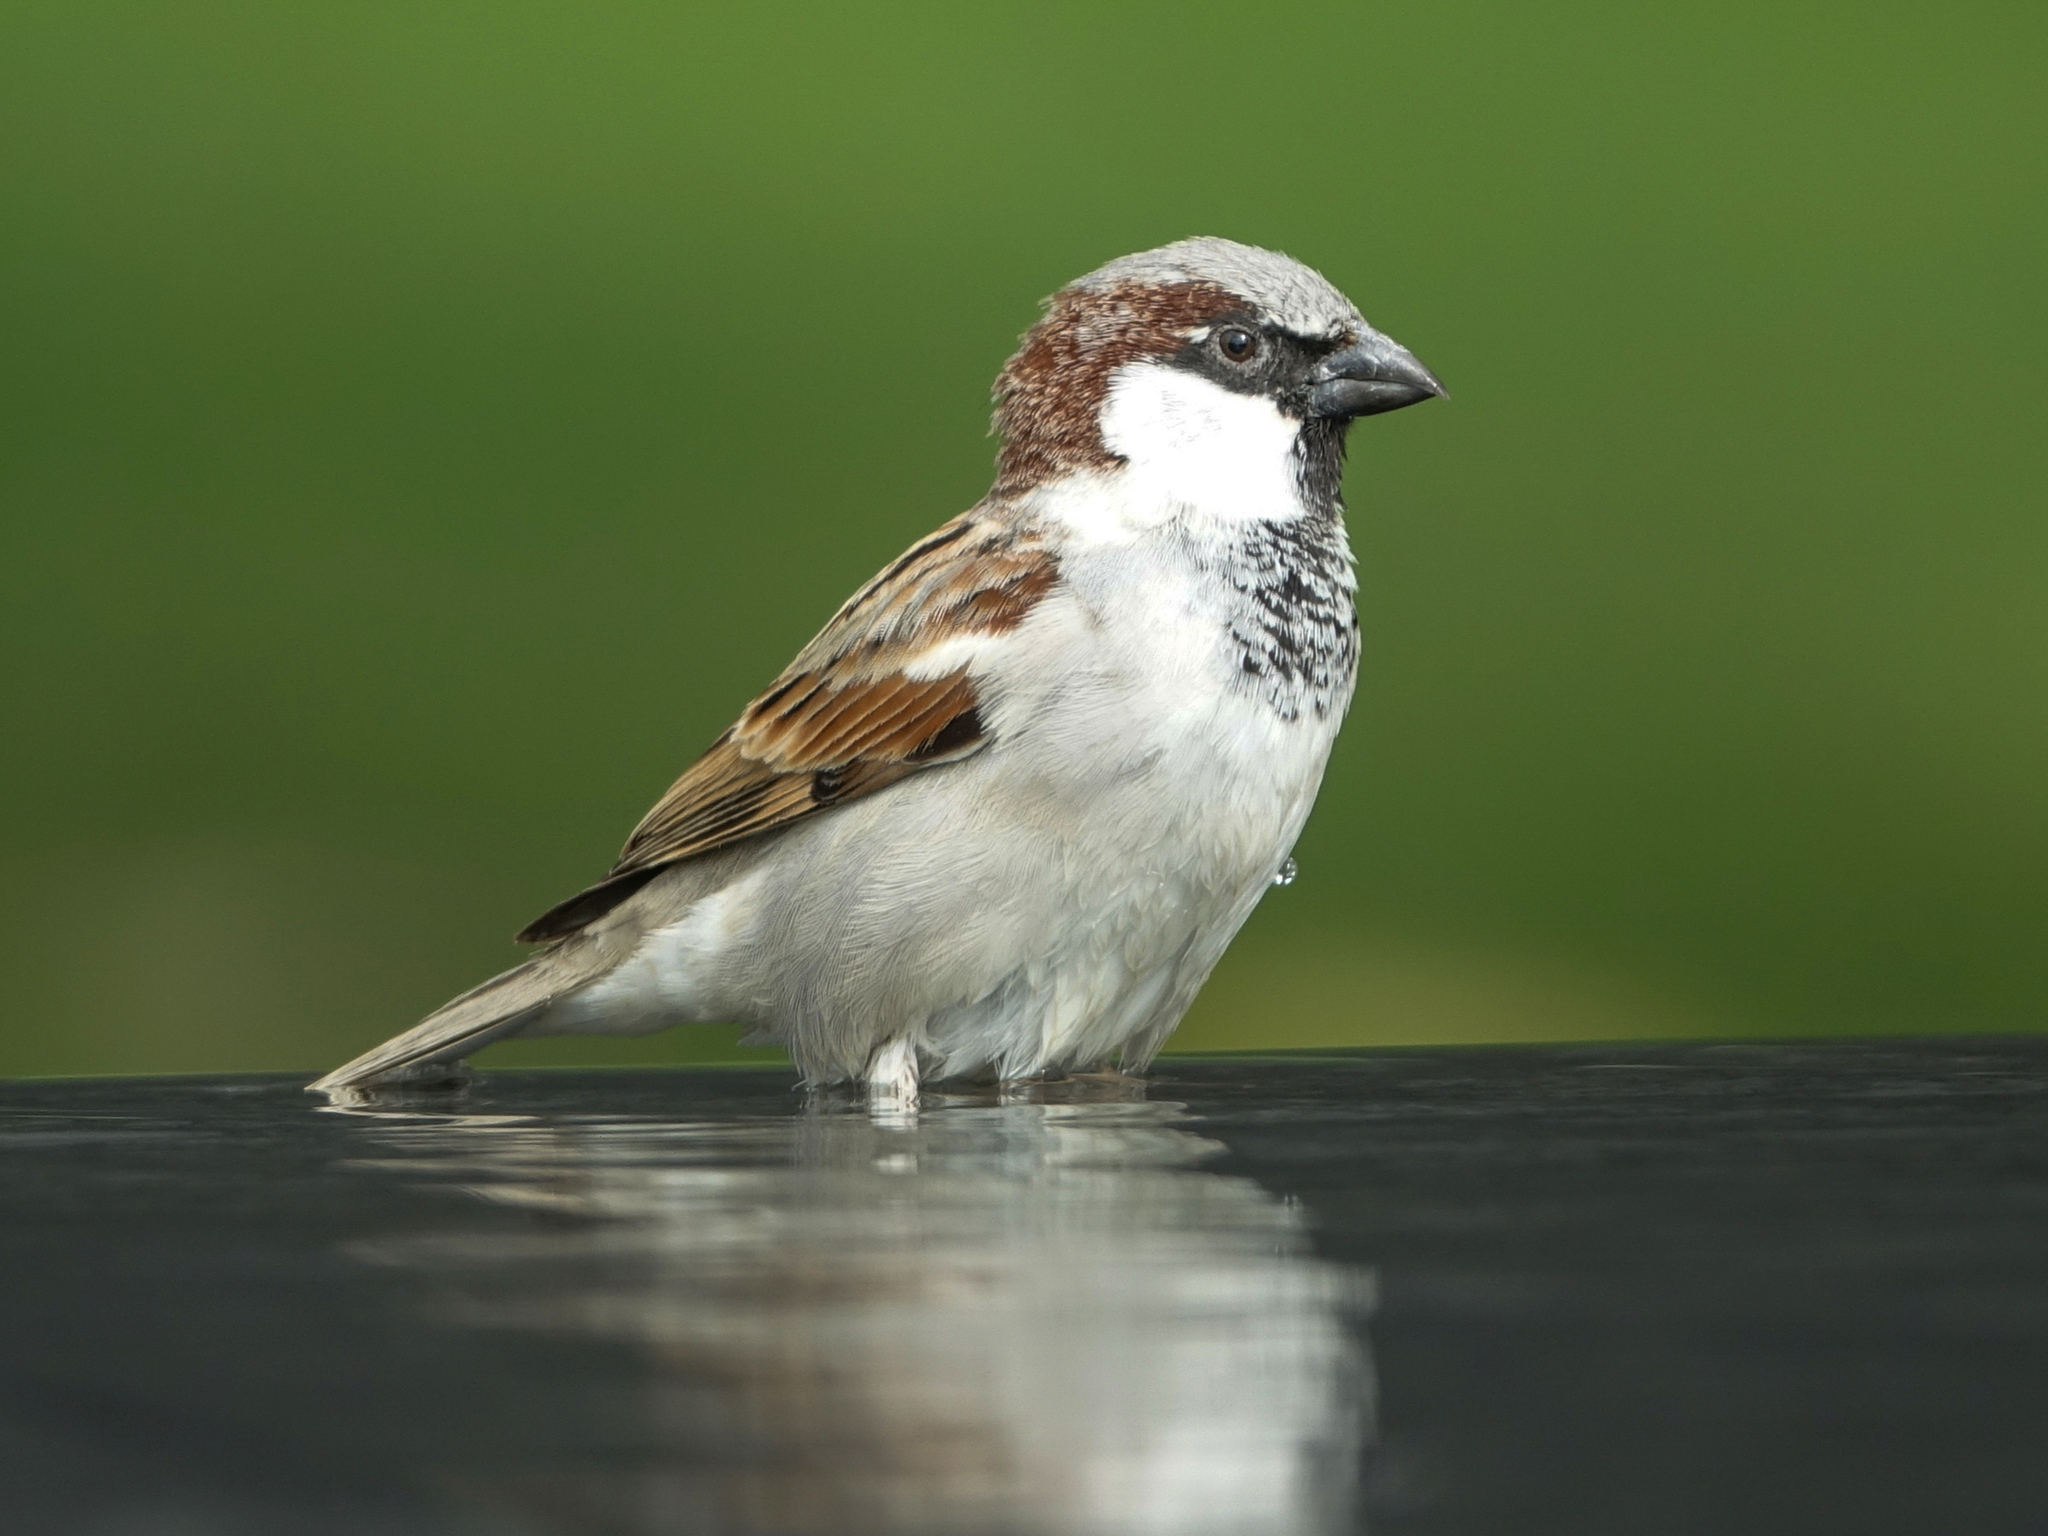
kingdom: Animalia
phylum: Chordata
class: Aves
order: Passeriformes
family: Passeridae
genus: Passer
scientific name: Passer domesticus
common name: House sparrow
